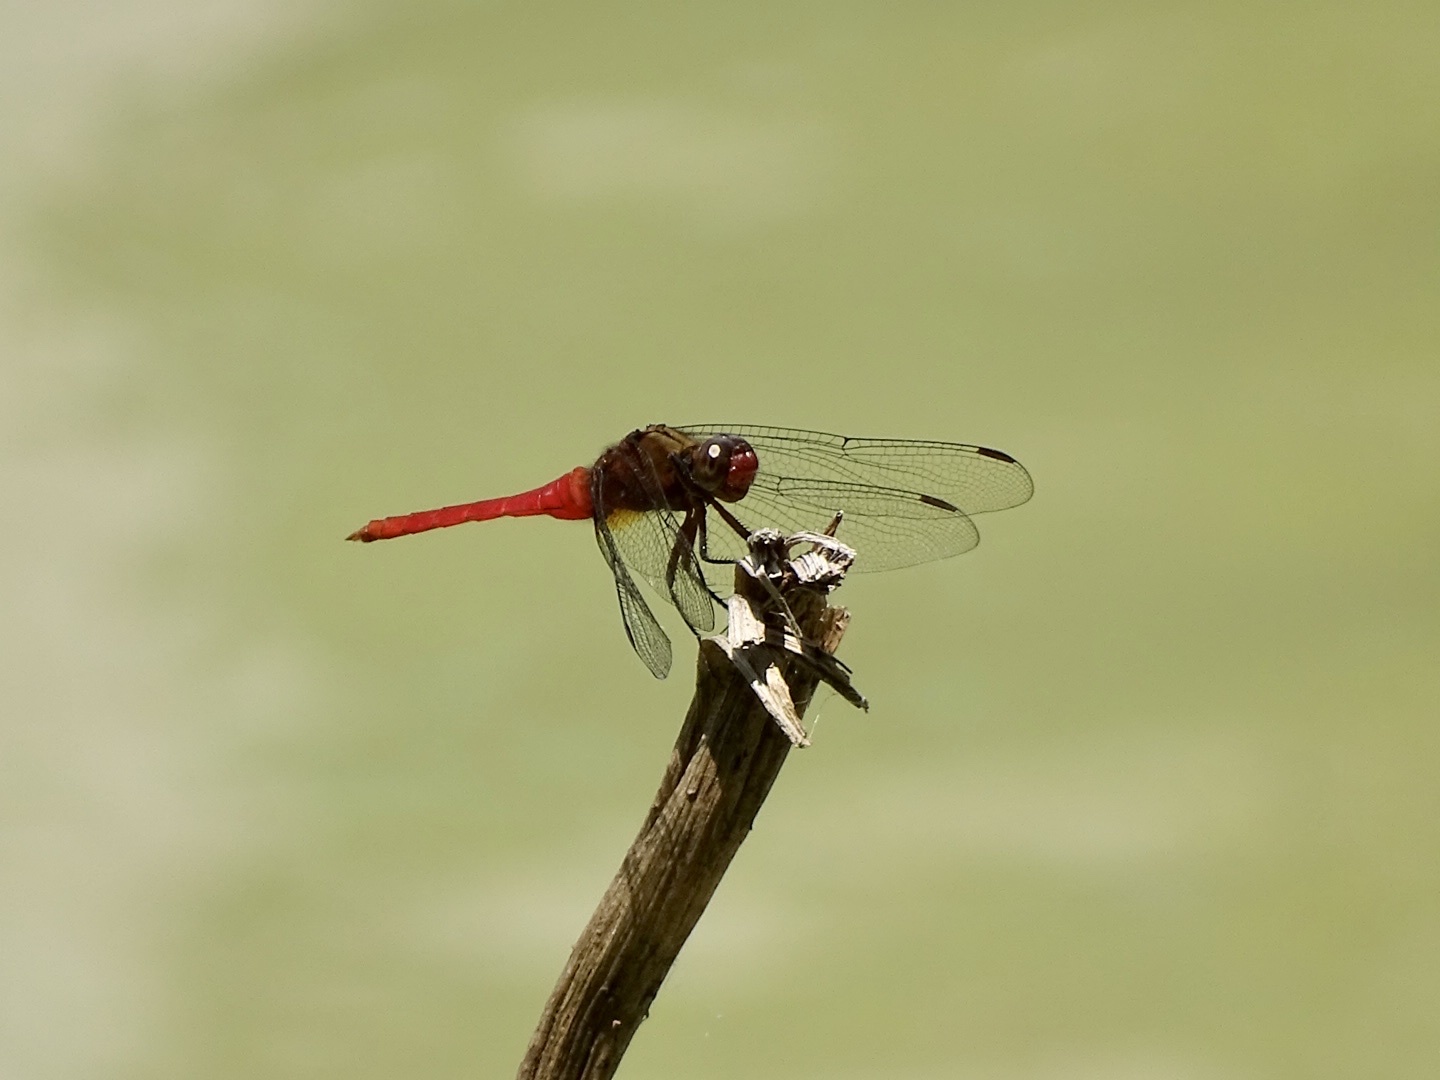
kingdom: Animalia
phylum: Arthropoda
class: Insecta
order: Odonata
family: Libellulidae
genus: Orthetrum
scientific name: Orthetrum chrysis
